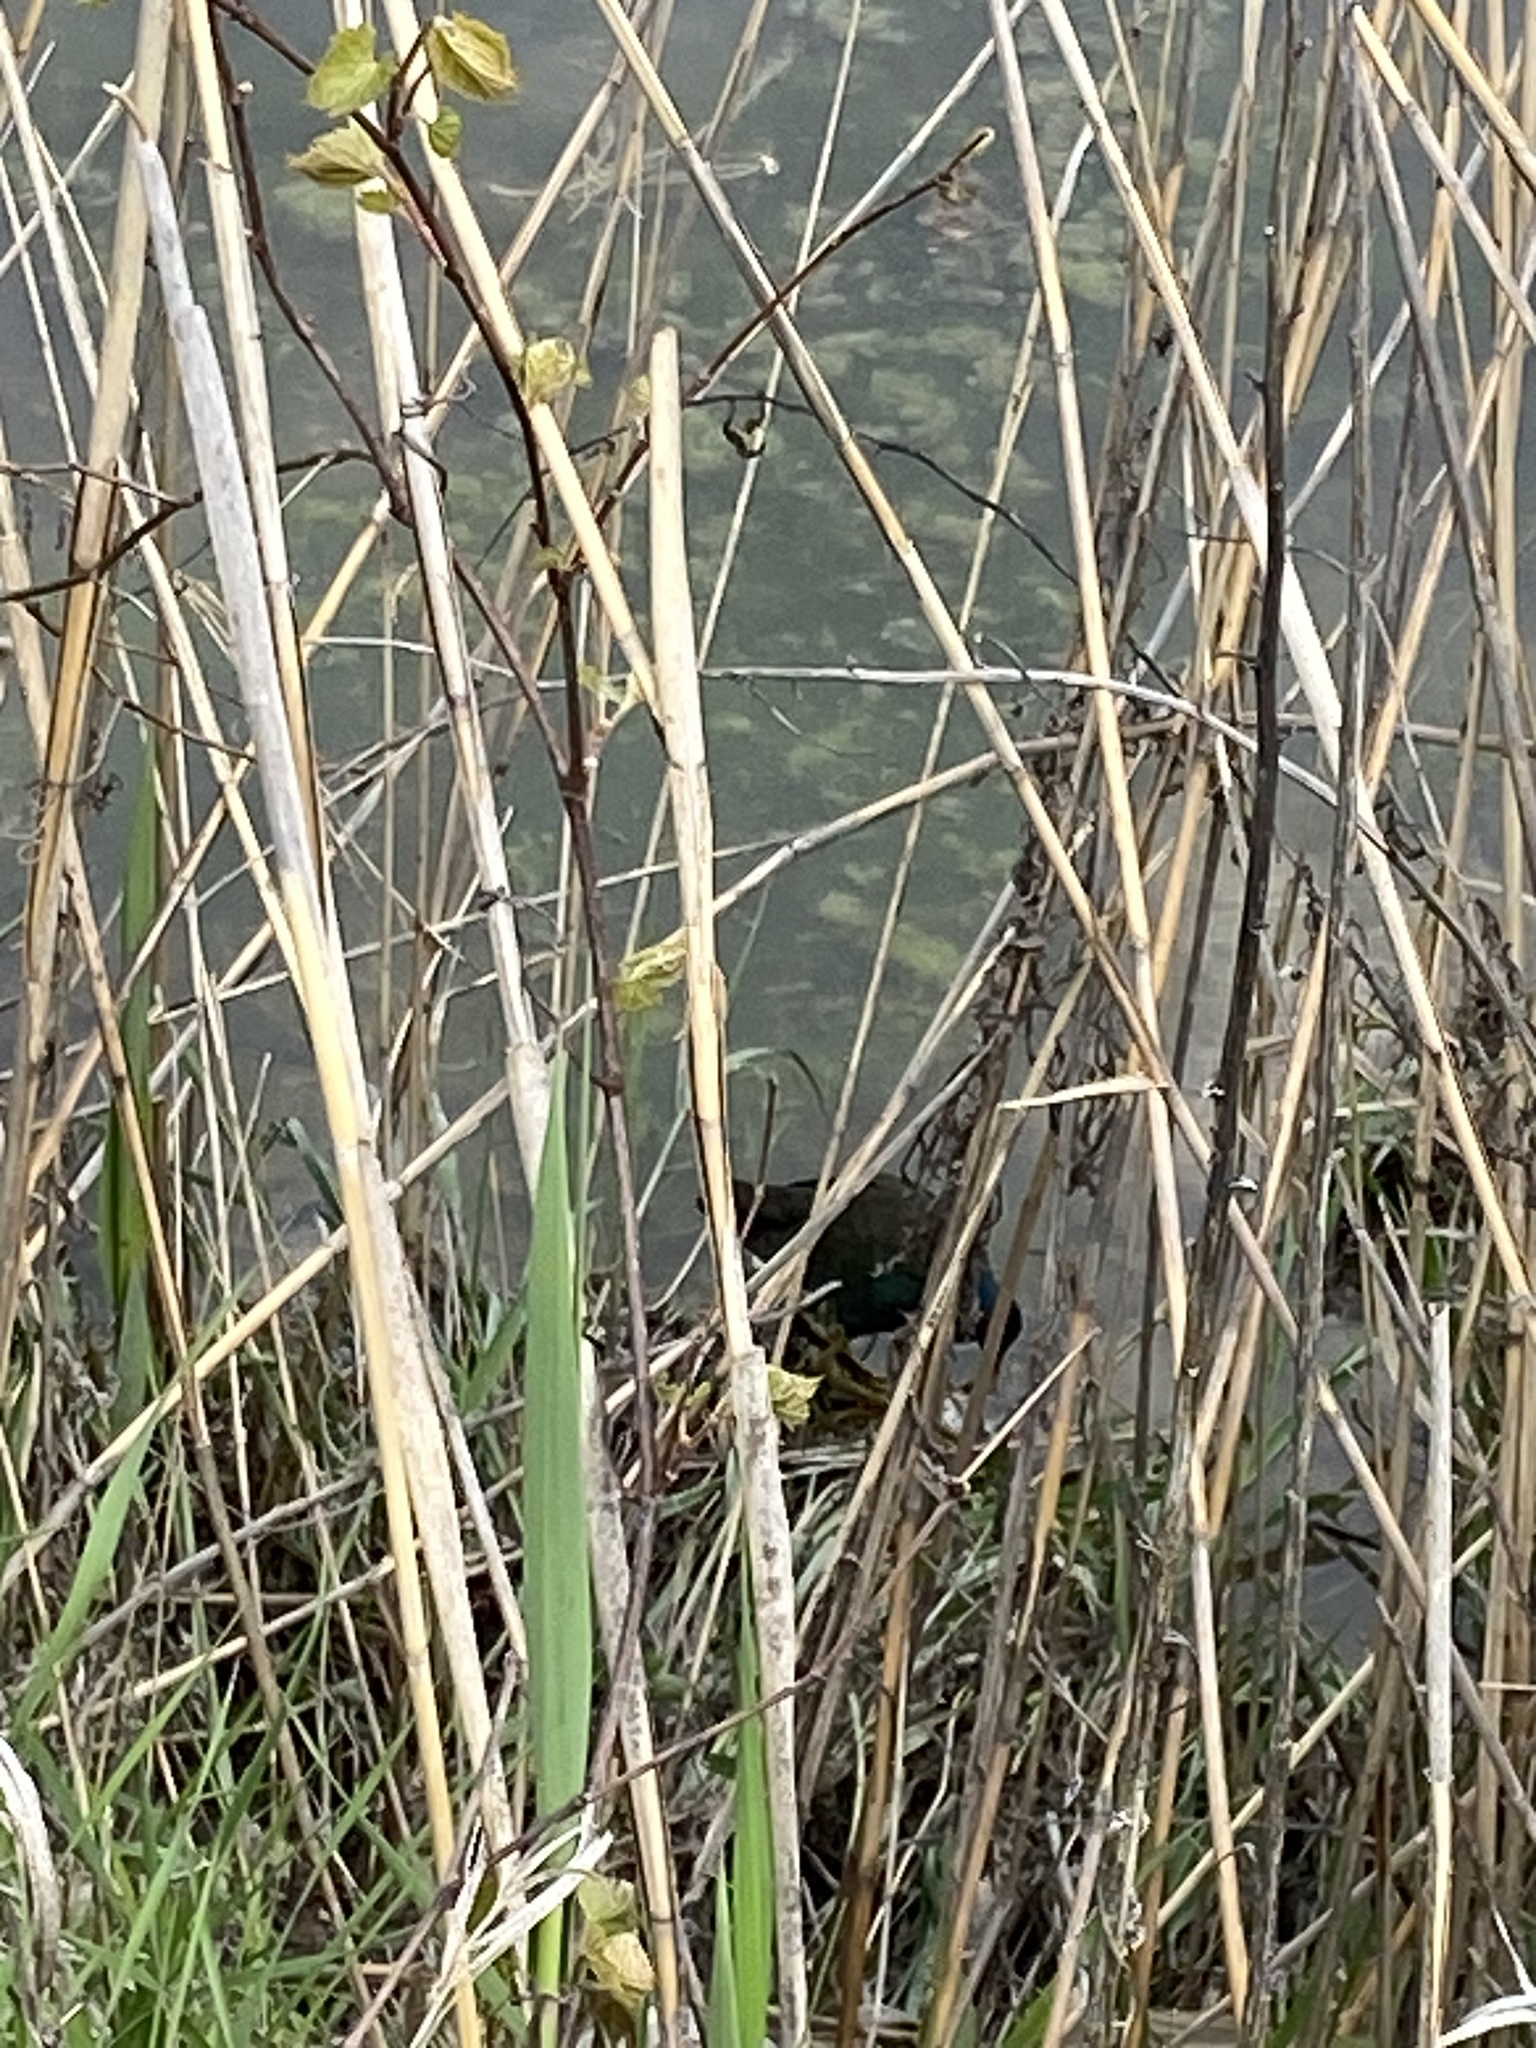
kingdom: Animalia
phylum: Chordata
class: Aves
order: Gruiformes
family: Rallidae
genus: Porphyrio
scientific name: Porphyrio martinica
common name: Purple gallinule
